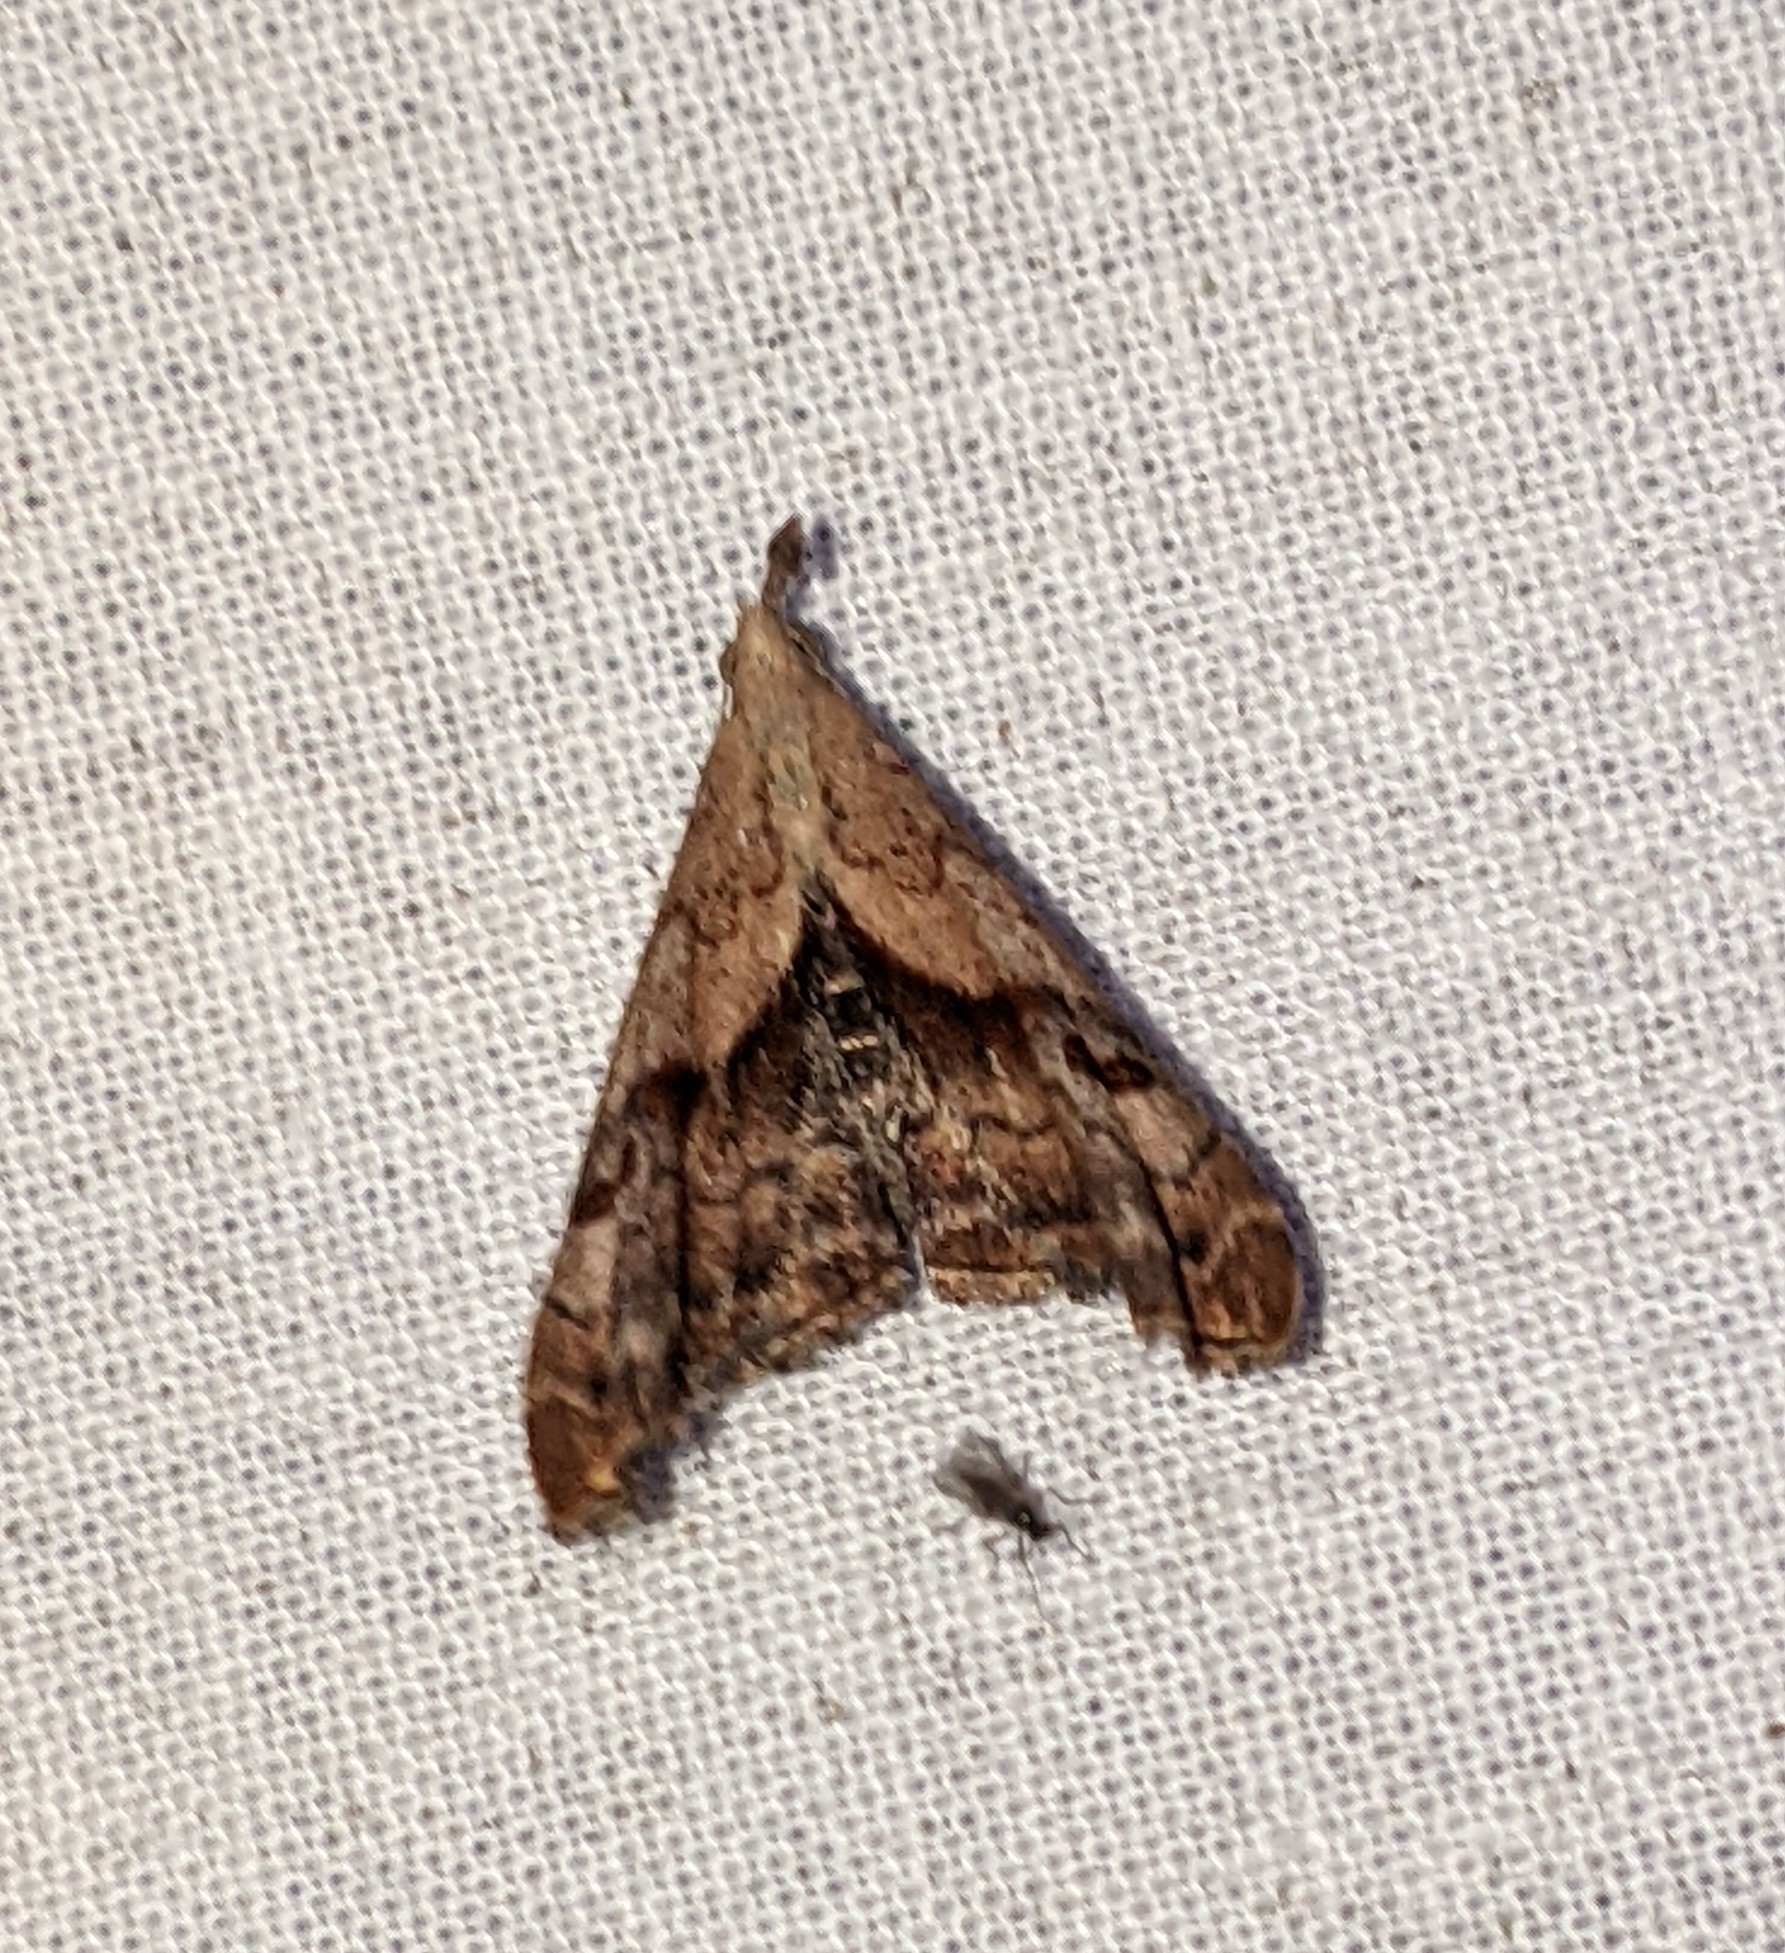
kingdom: Animalia
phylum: Arthropoda
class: Insecta
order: Lepidoptera
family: Erebidae
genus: Palthis
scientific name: Palthis angulalis
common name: Dark-spotted palthis moth
